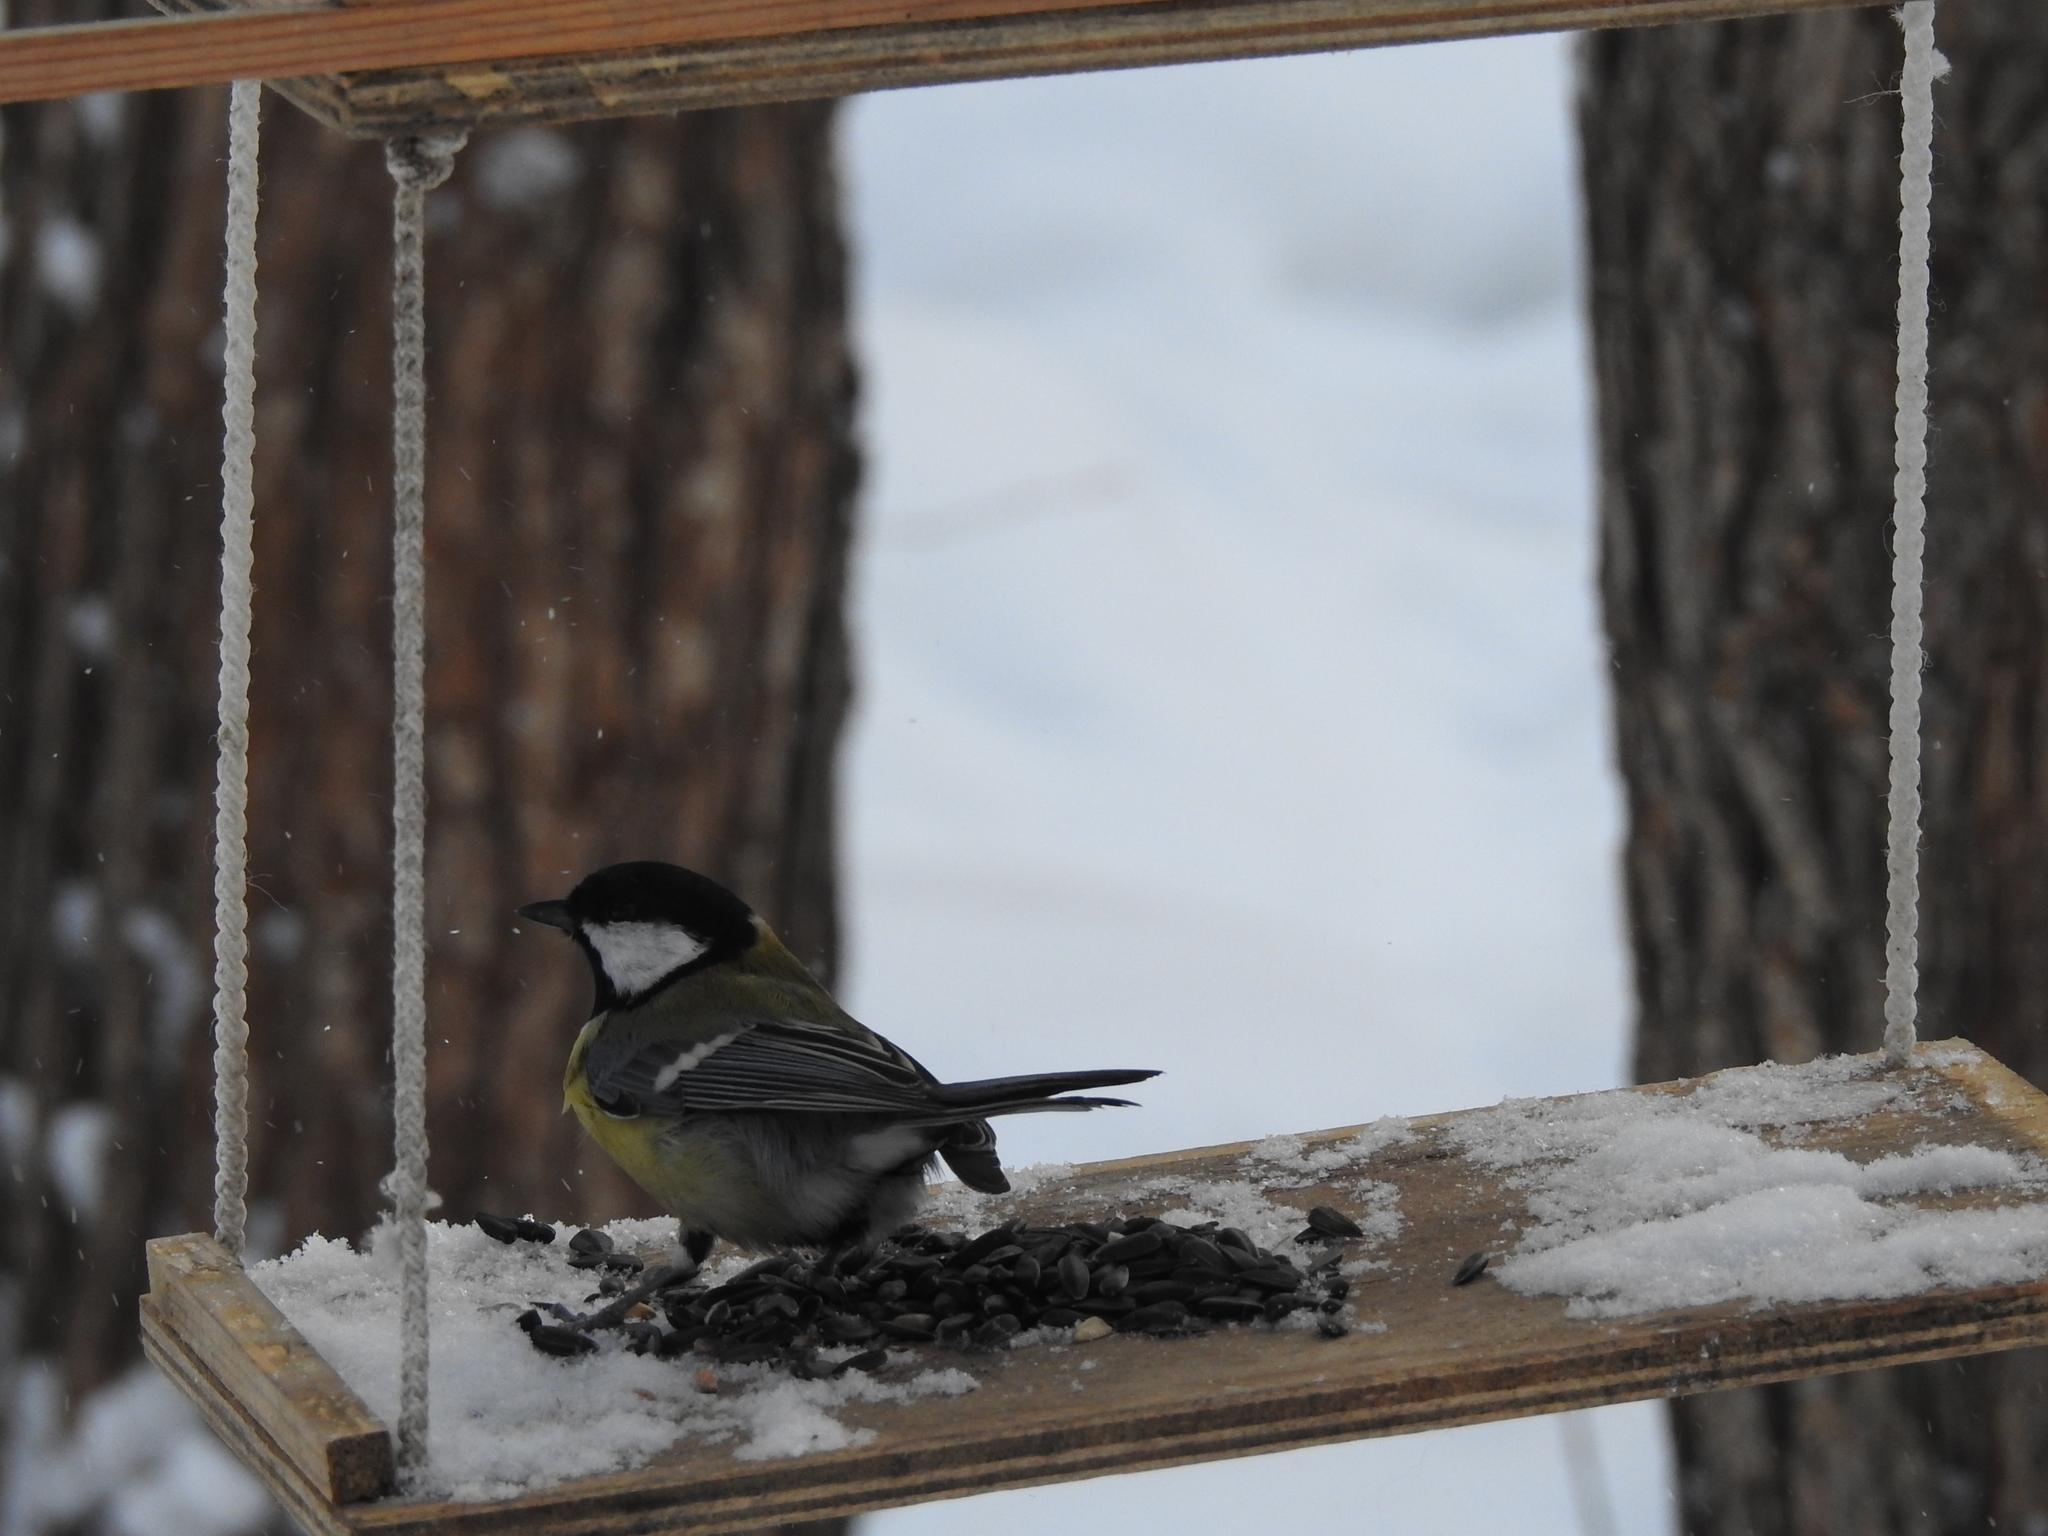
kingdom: Animalia
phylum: Chordata
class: Aves
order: Passeriformes
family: Paridae
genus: Parus
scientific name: Parus major
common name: Great tit
